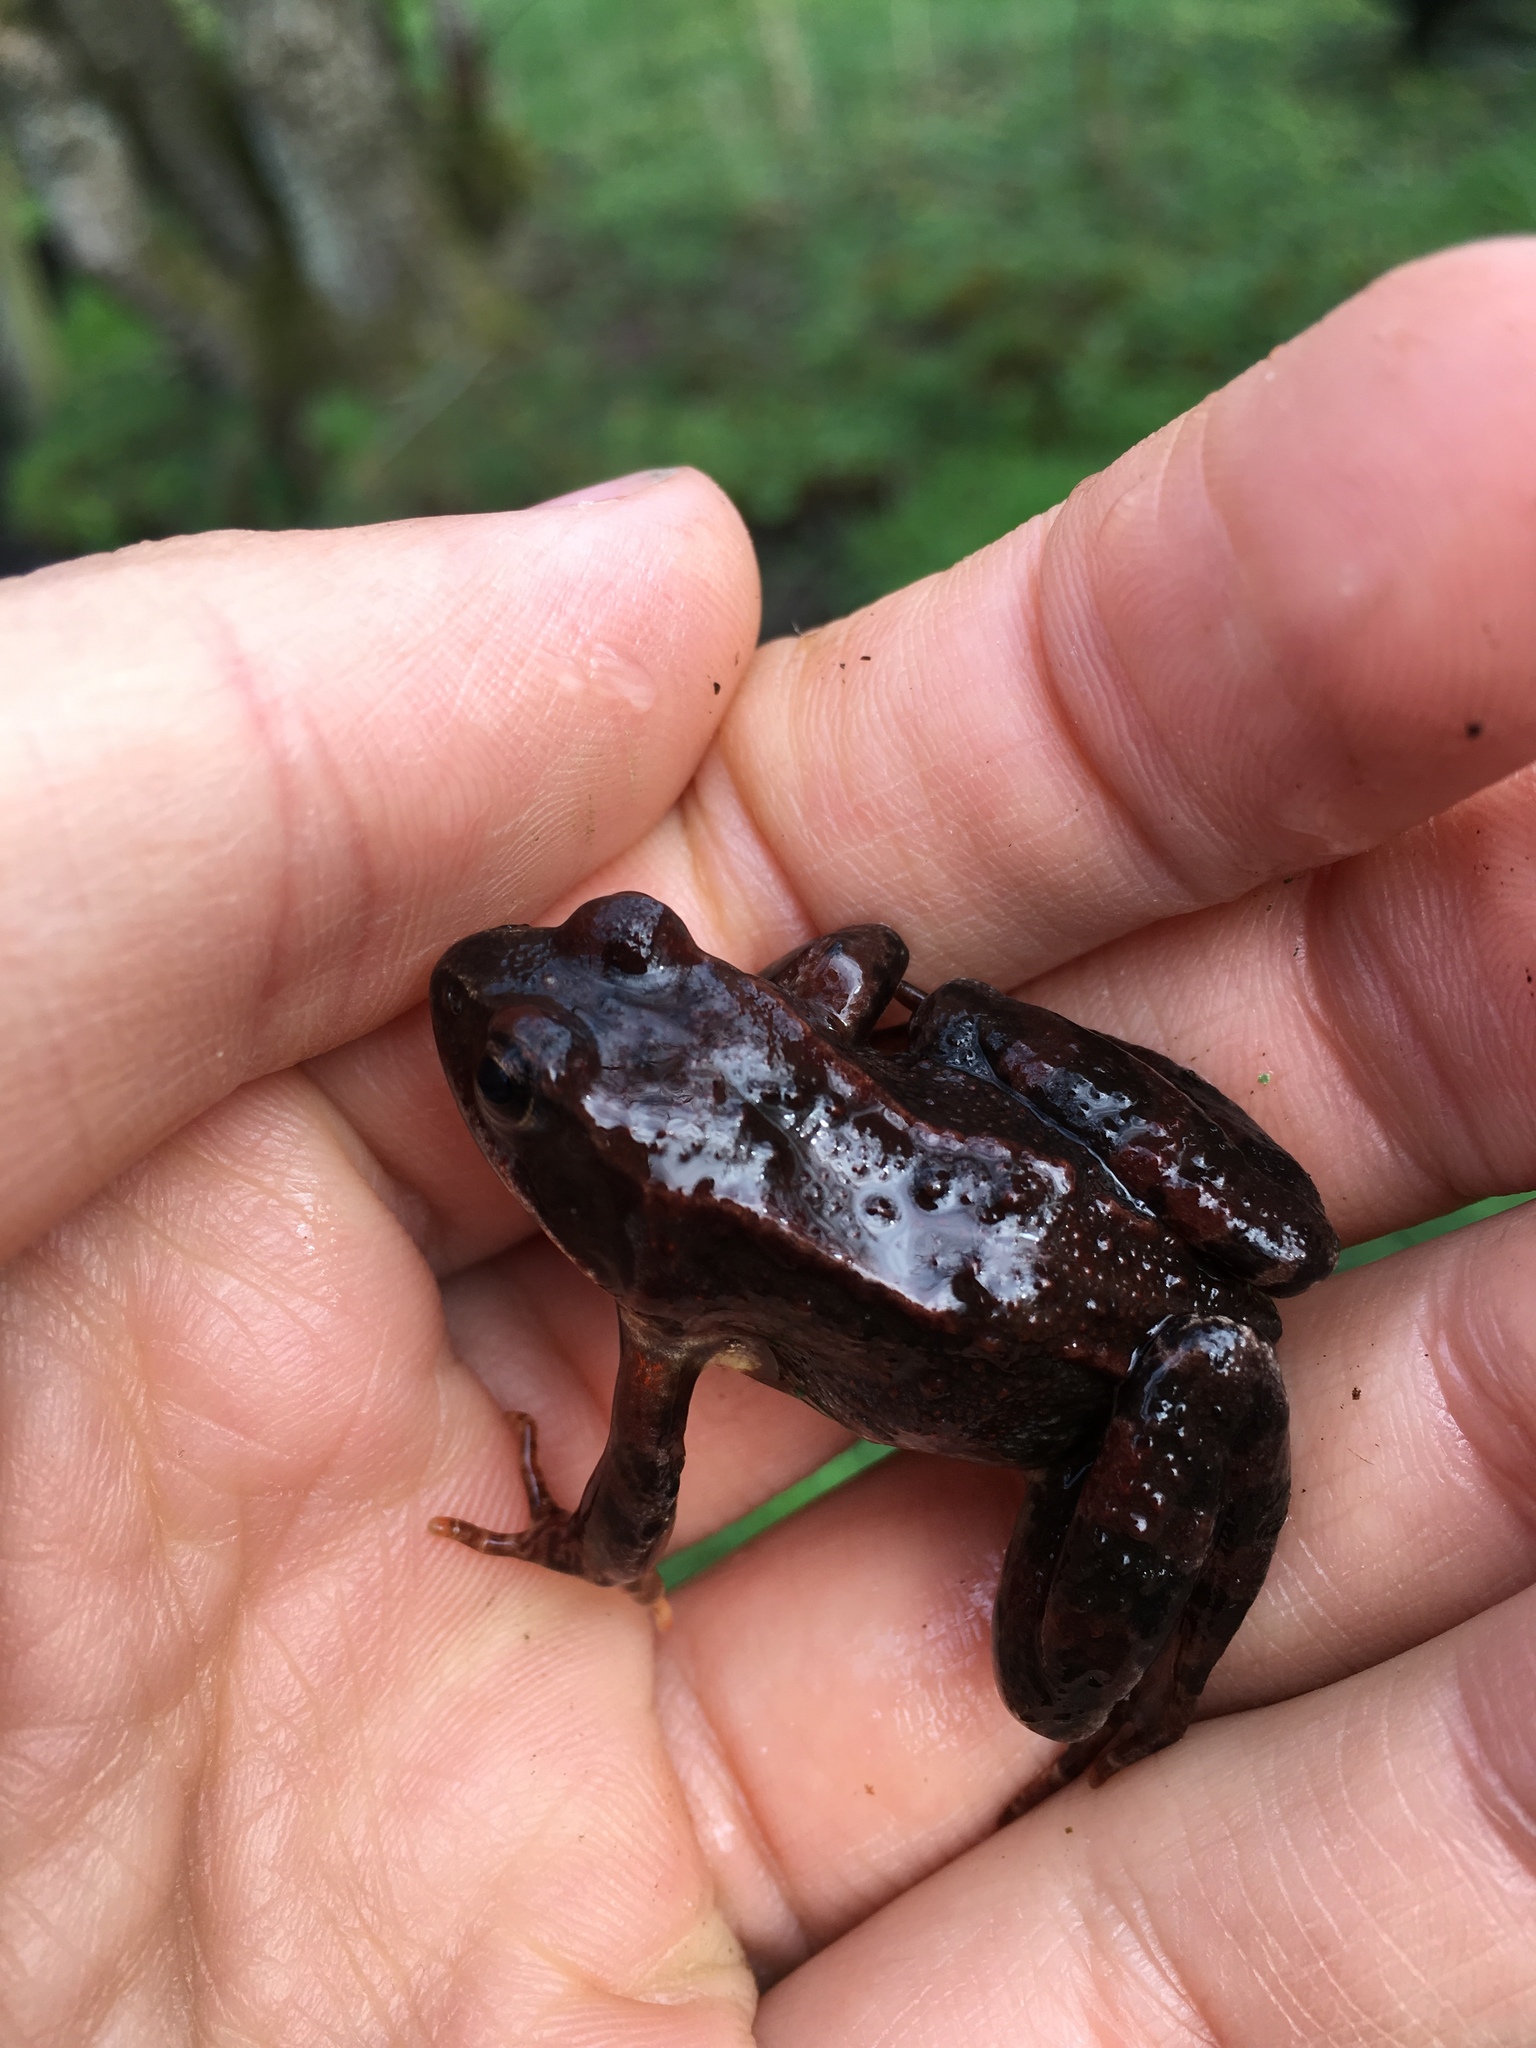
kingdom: Animalia
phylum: Chordata
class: Amphibia
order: Anura
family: Ranidae
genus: Rana
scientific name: Rana temporaria
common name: Common frog
